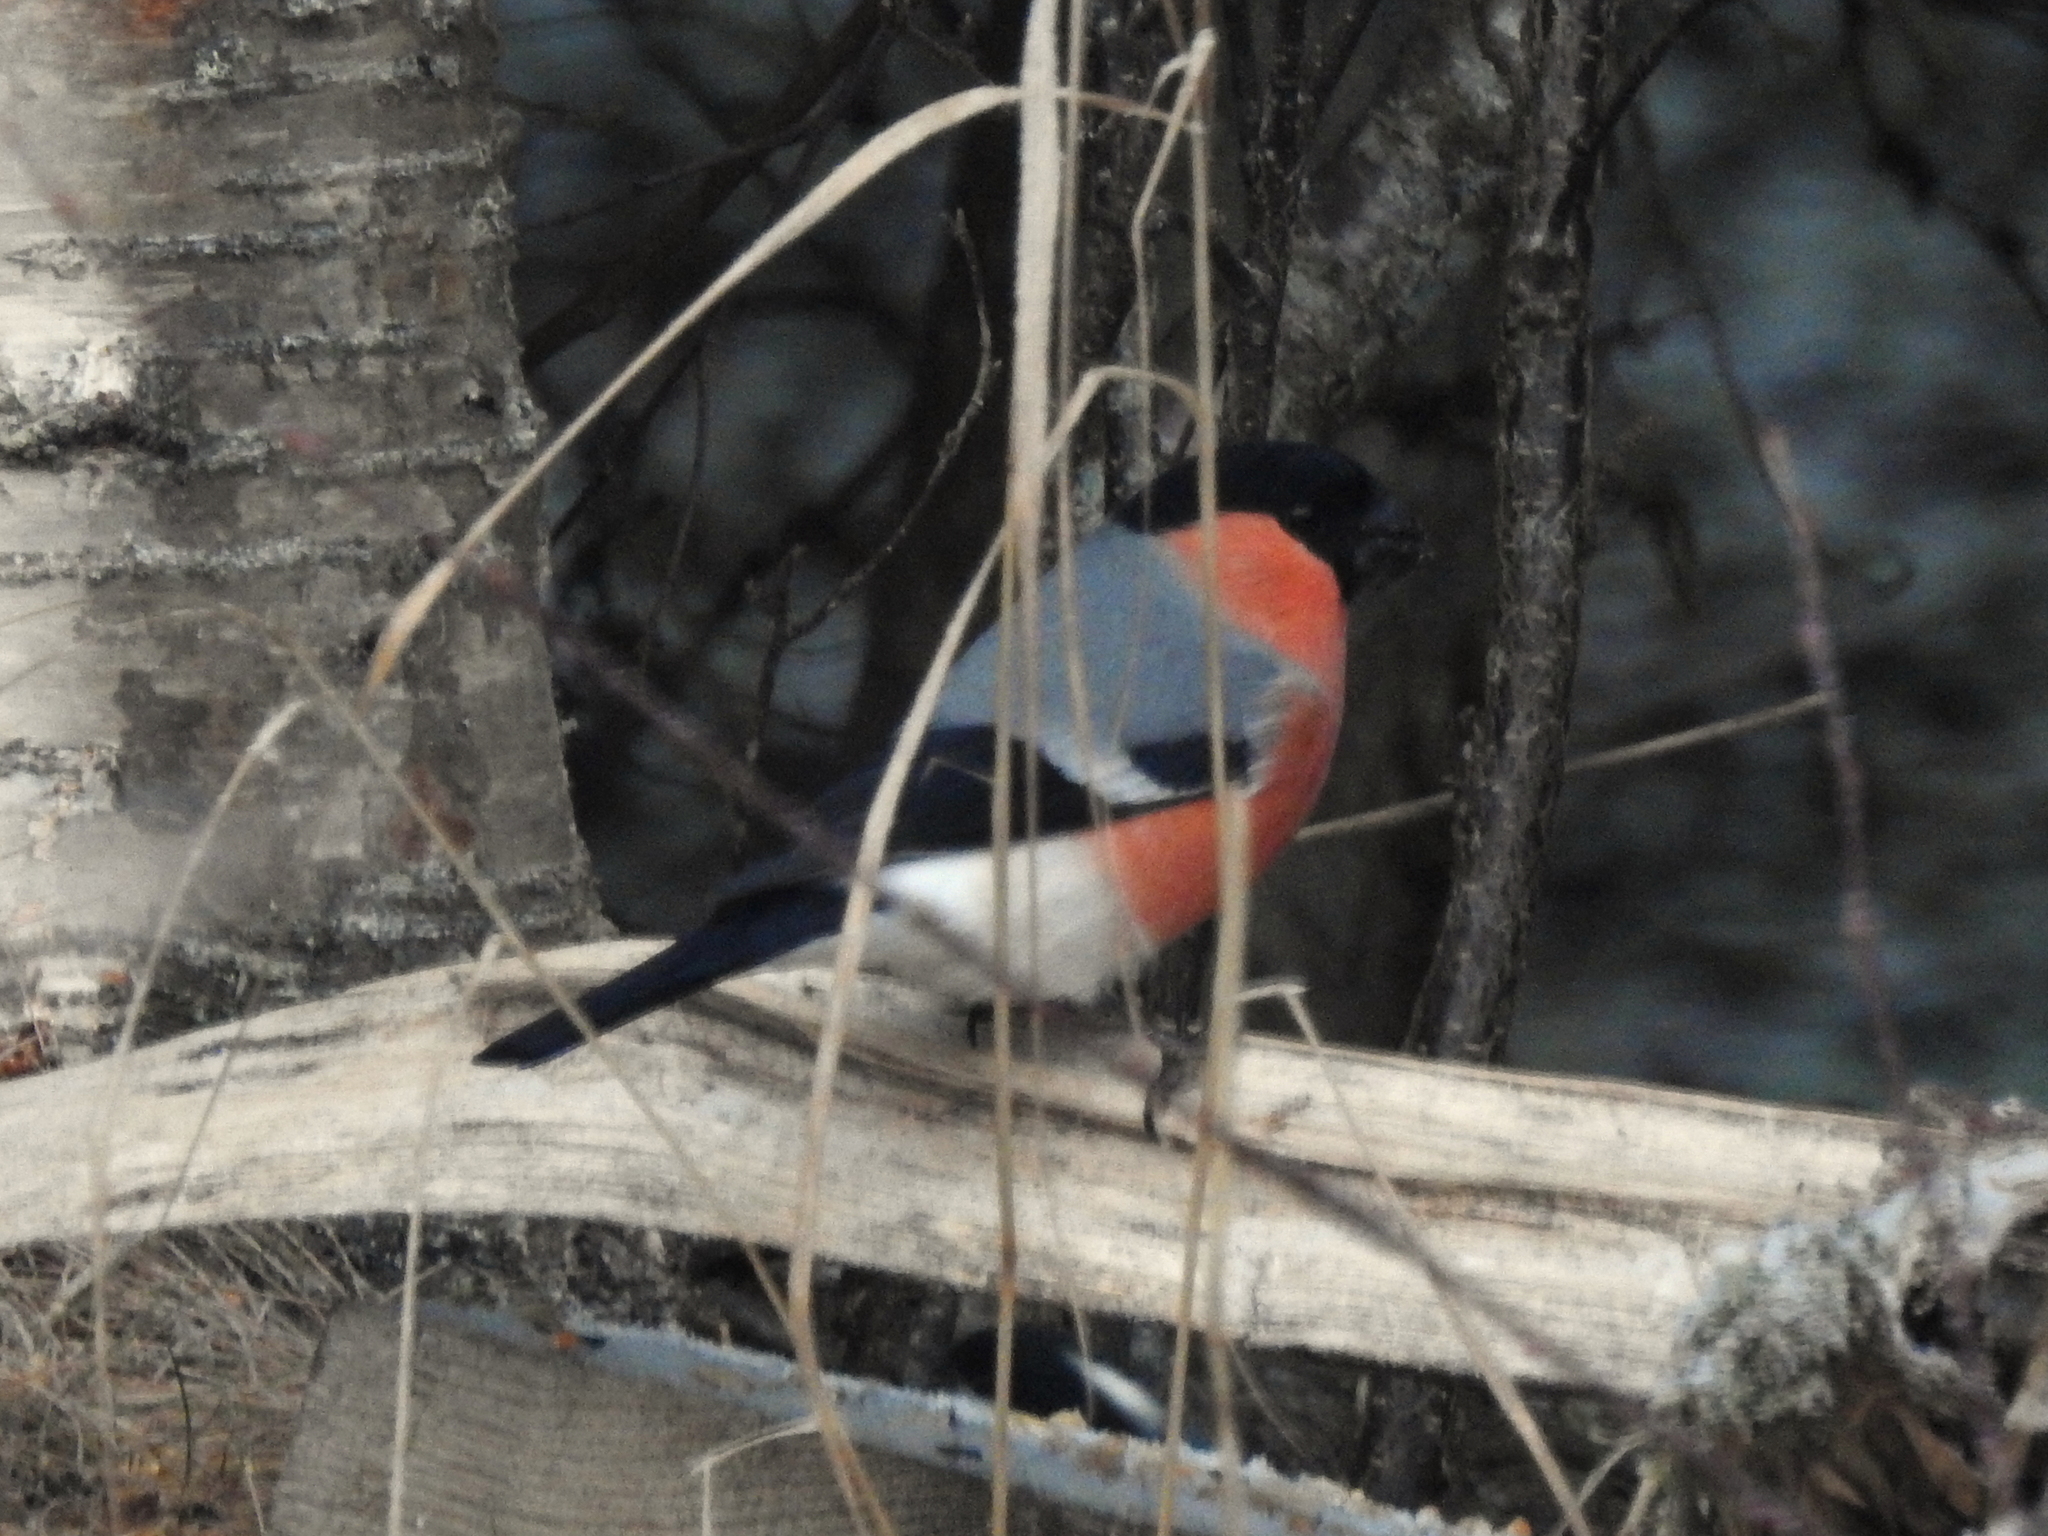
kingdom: Animalia
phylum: Chordata
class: Aves
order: Passeriformes
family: Fringillidae
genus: Pyrrhula
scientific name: Pyrrhula pyrrhula
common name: Eurasian bullfinch
